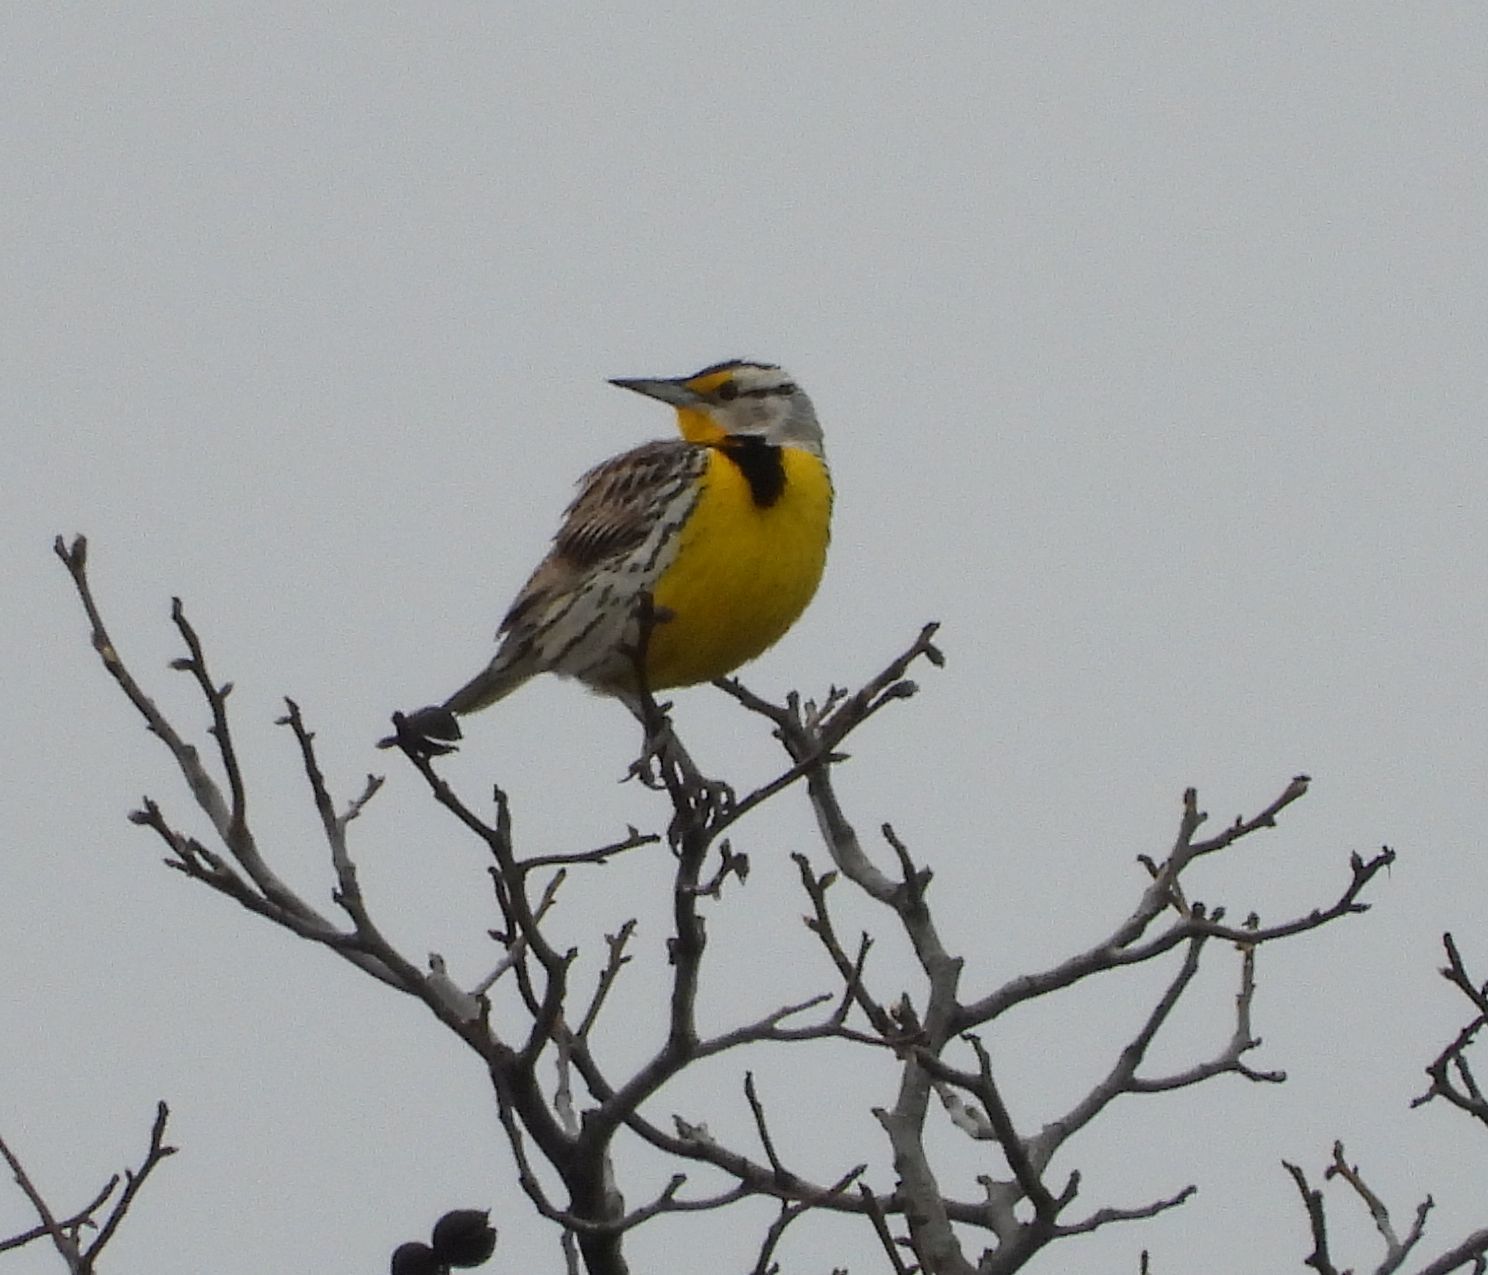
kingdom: Animalia
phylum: Chordata
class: Aves
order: Passeriformes
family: Icteridae
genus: Sturnella
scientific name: Sturnella magna
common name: Eastern meadowlark
